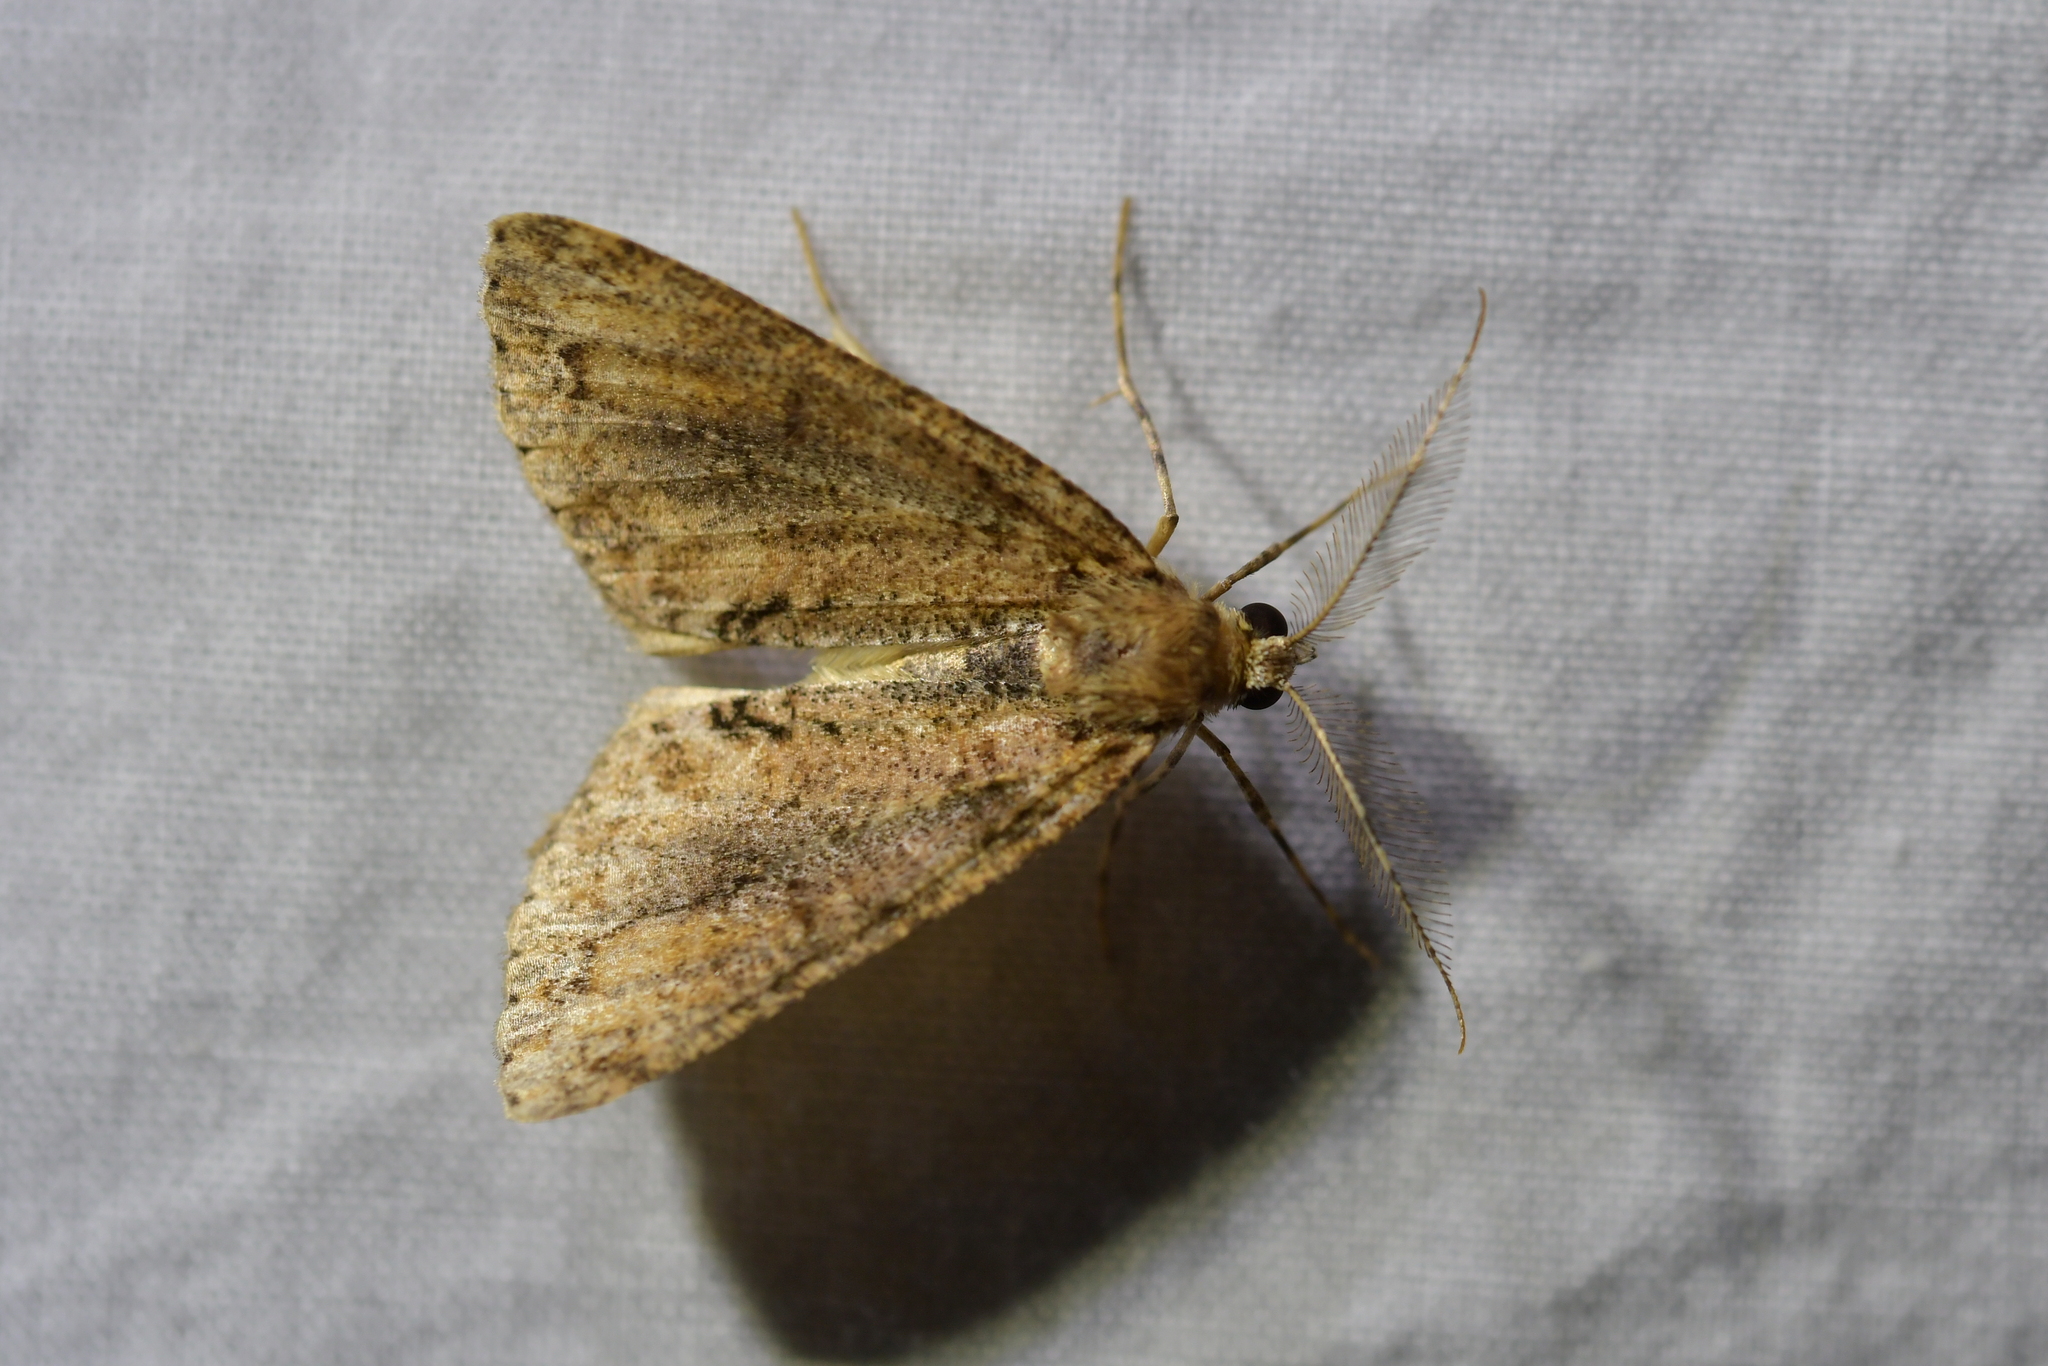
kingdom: Animalia
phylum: Arthropoda
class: Insecta
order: Lepidoptera
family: Geometridae
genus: Pseudocoremia
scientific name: Pseudocoremia suavis
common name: Common forest looper
